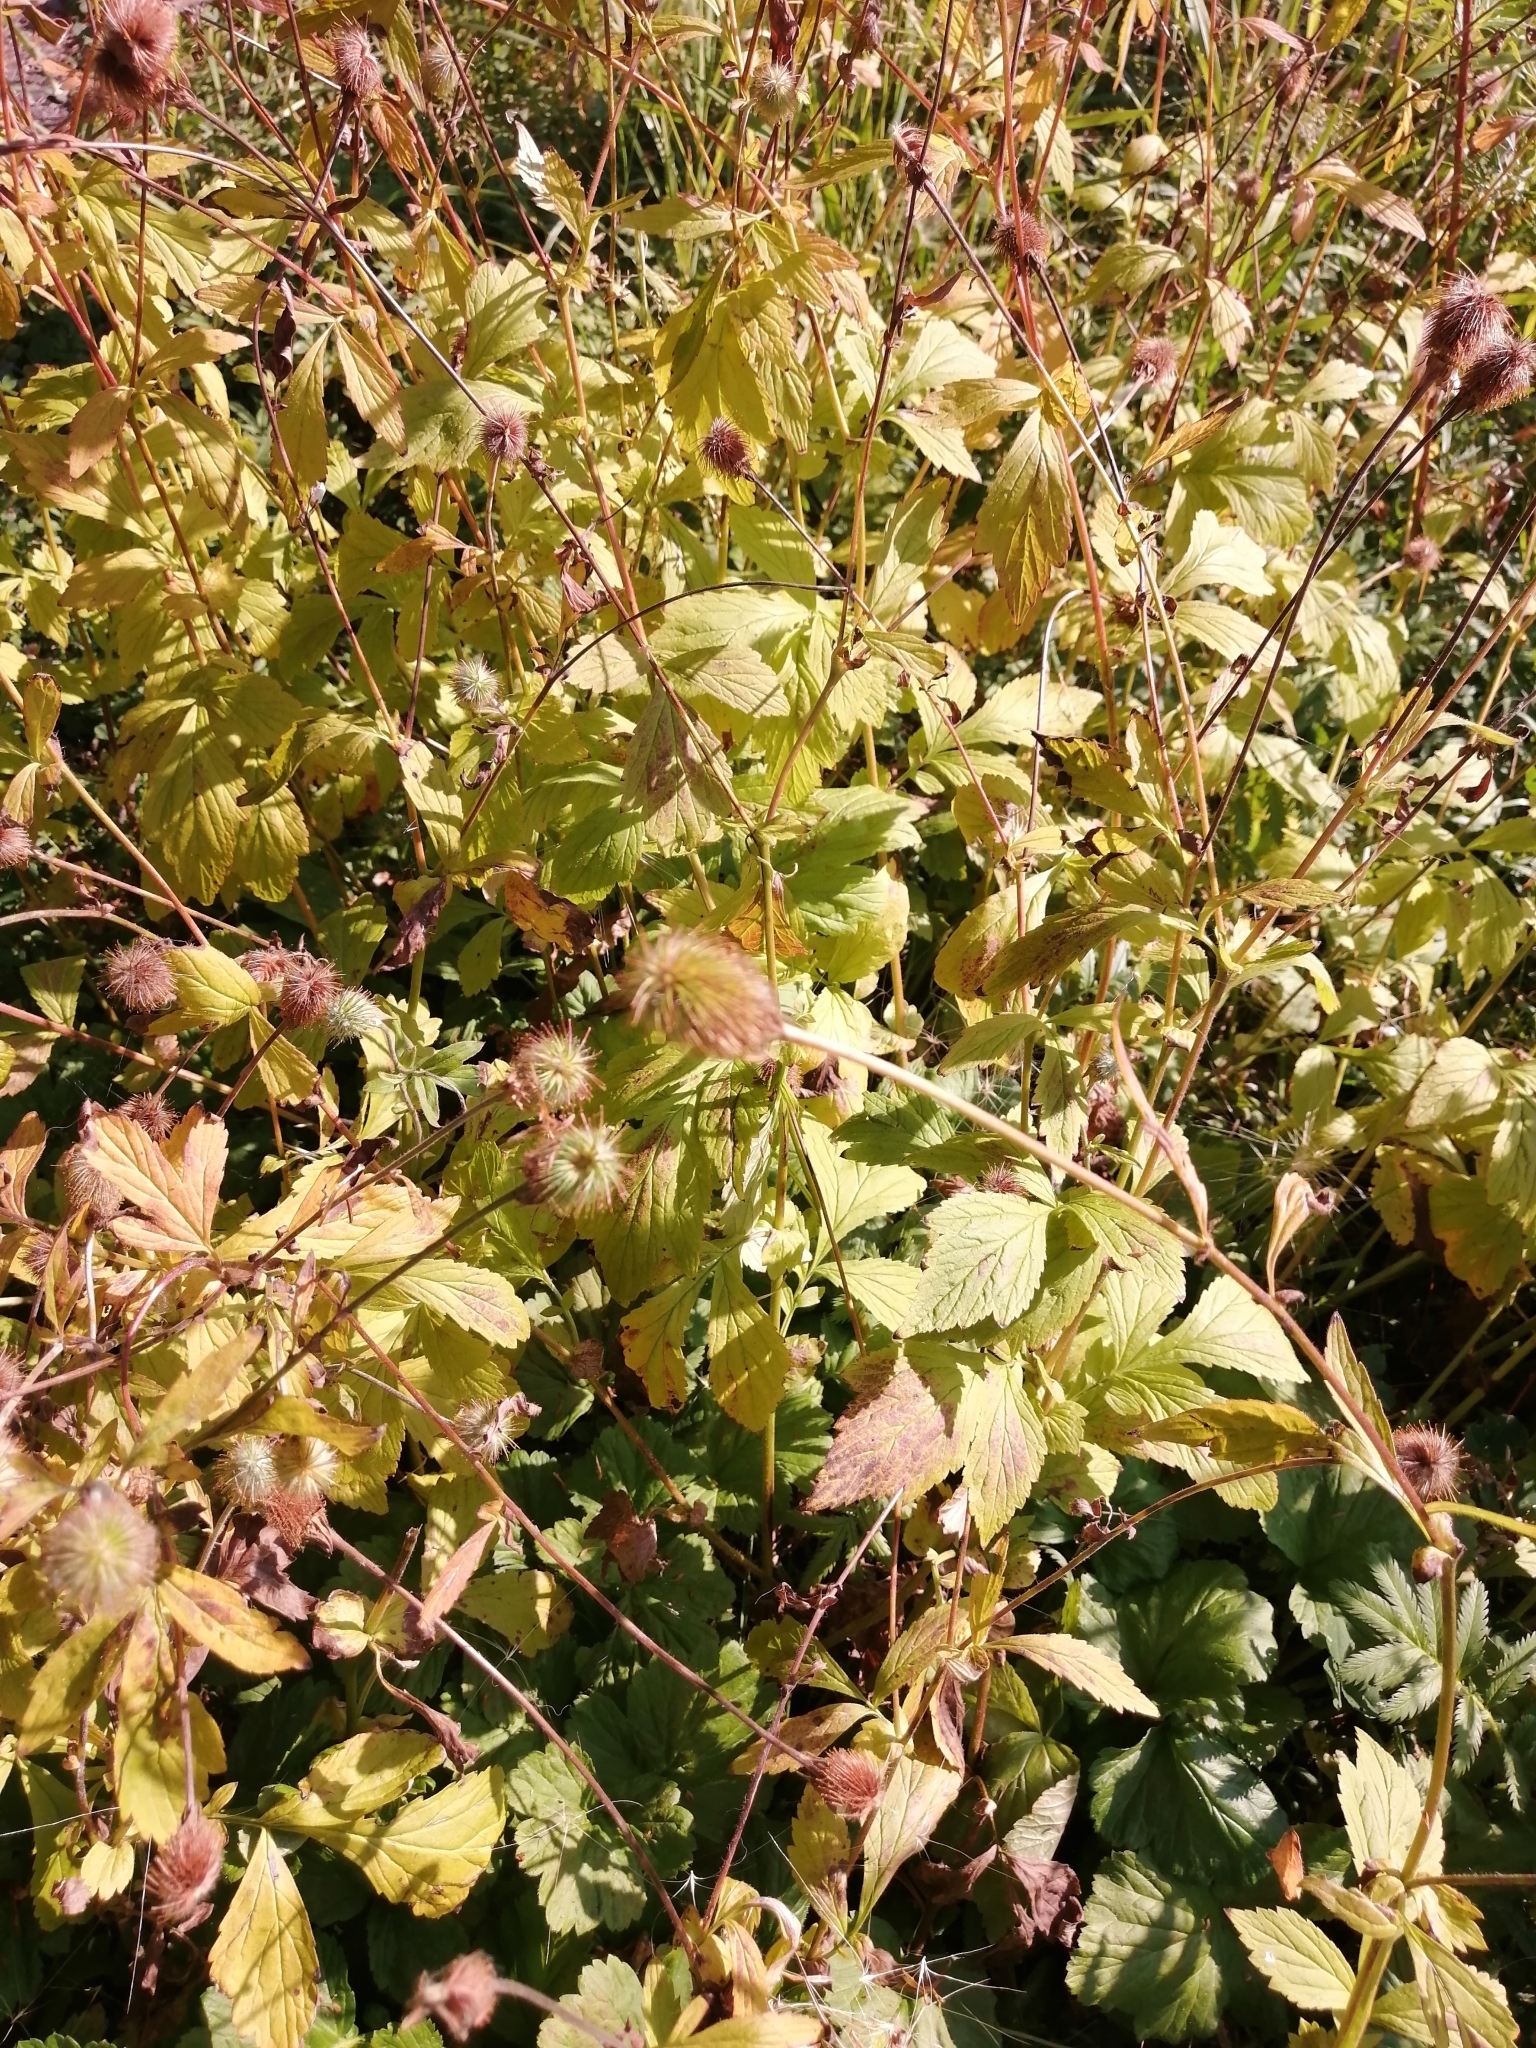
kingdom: Plantae
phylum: Tracheophyta
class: Magnoliopsida
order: Rosales
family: Rosaceae
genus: Geum
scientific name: Geum aleppicum
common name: Yellow avens
